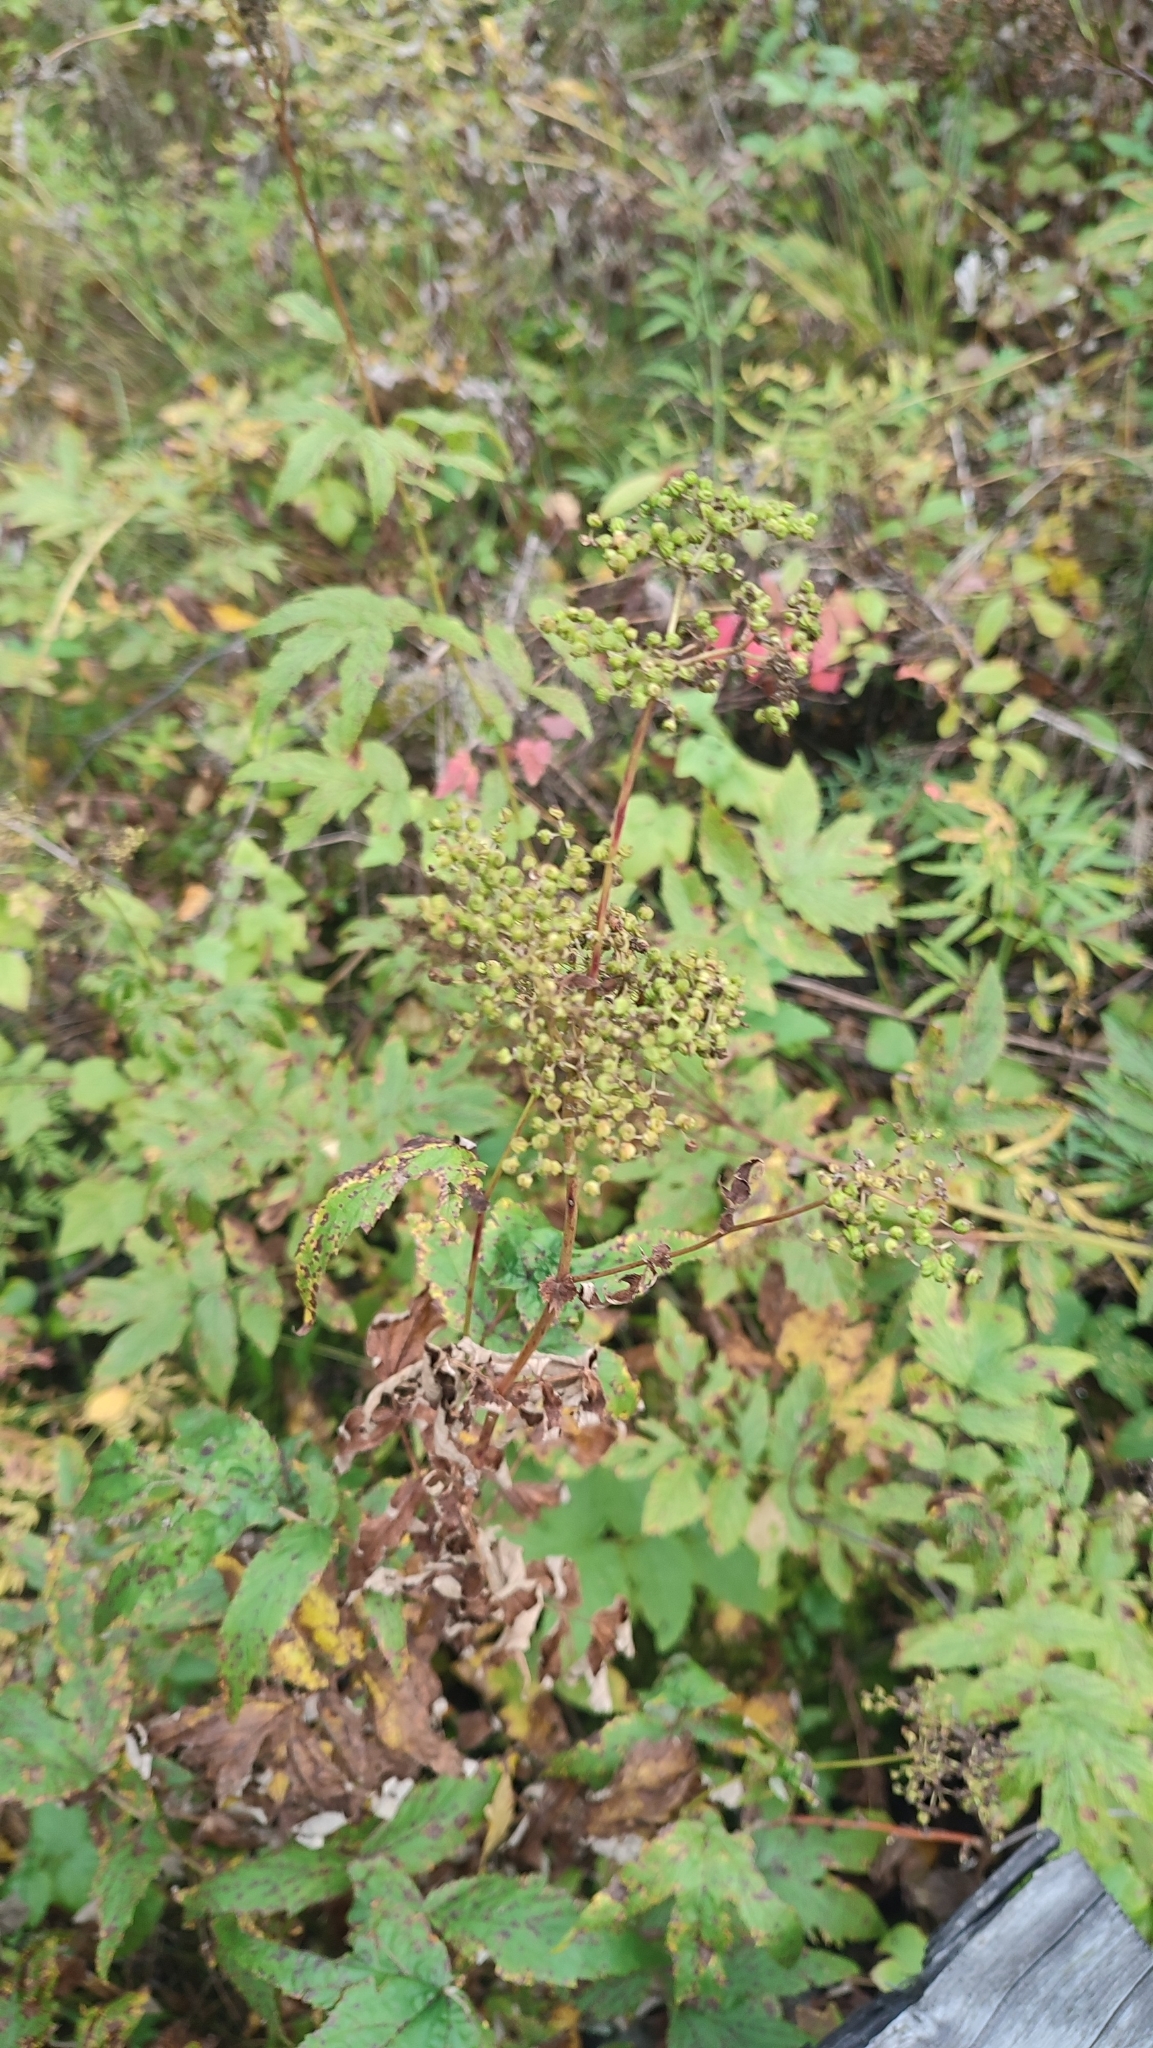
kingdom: Plantae
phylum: Tracheophyta
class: Magnoliopsida
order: Rosales
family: Rosaceae
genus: Filipendula
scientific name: Filipendula ulmaria
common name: Meadowsweet
